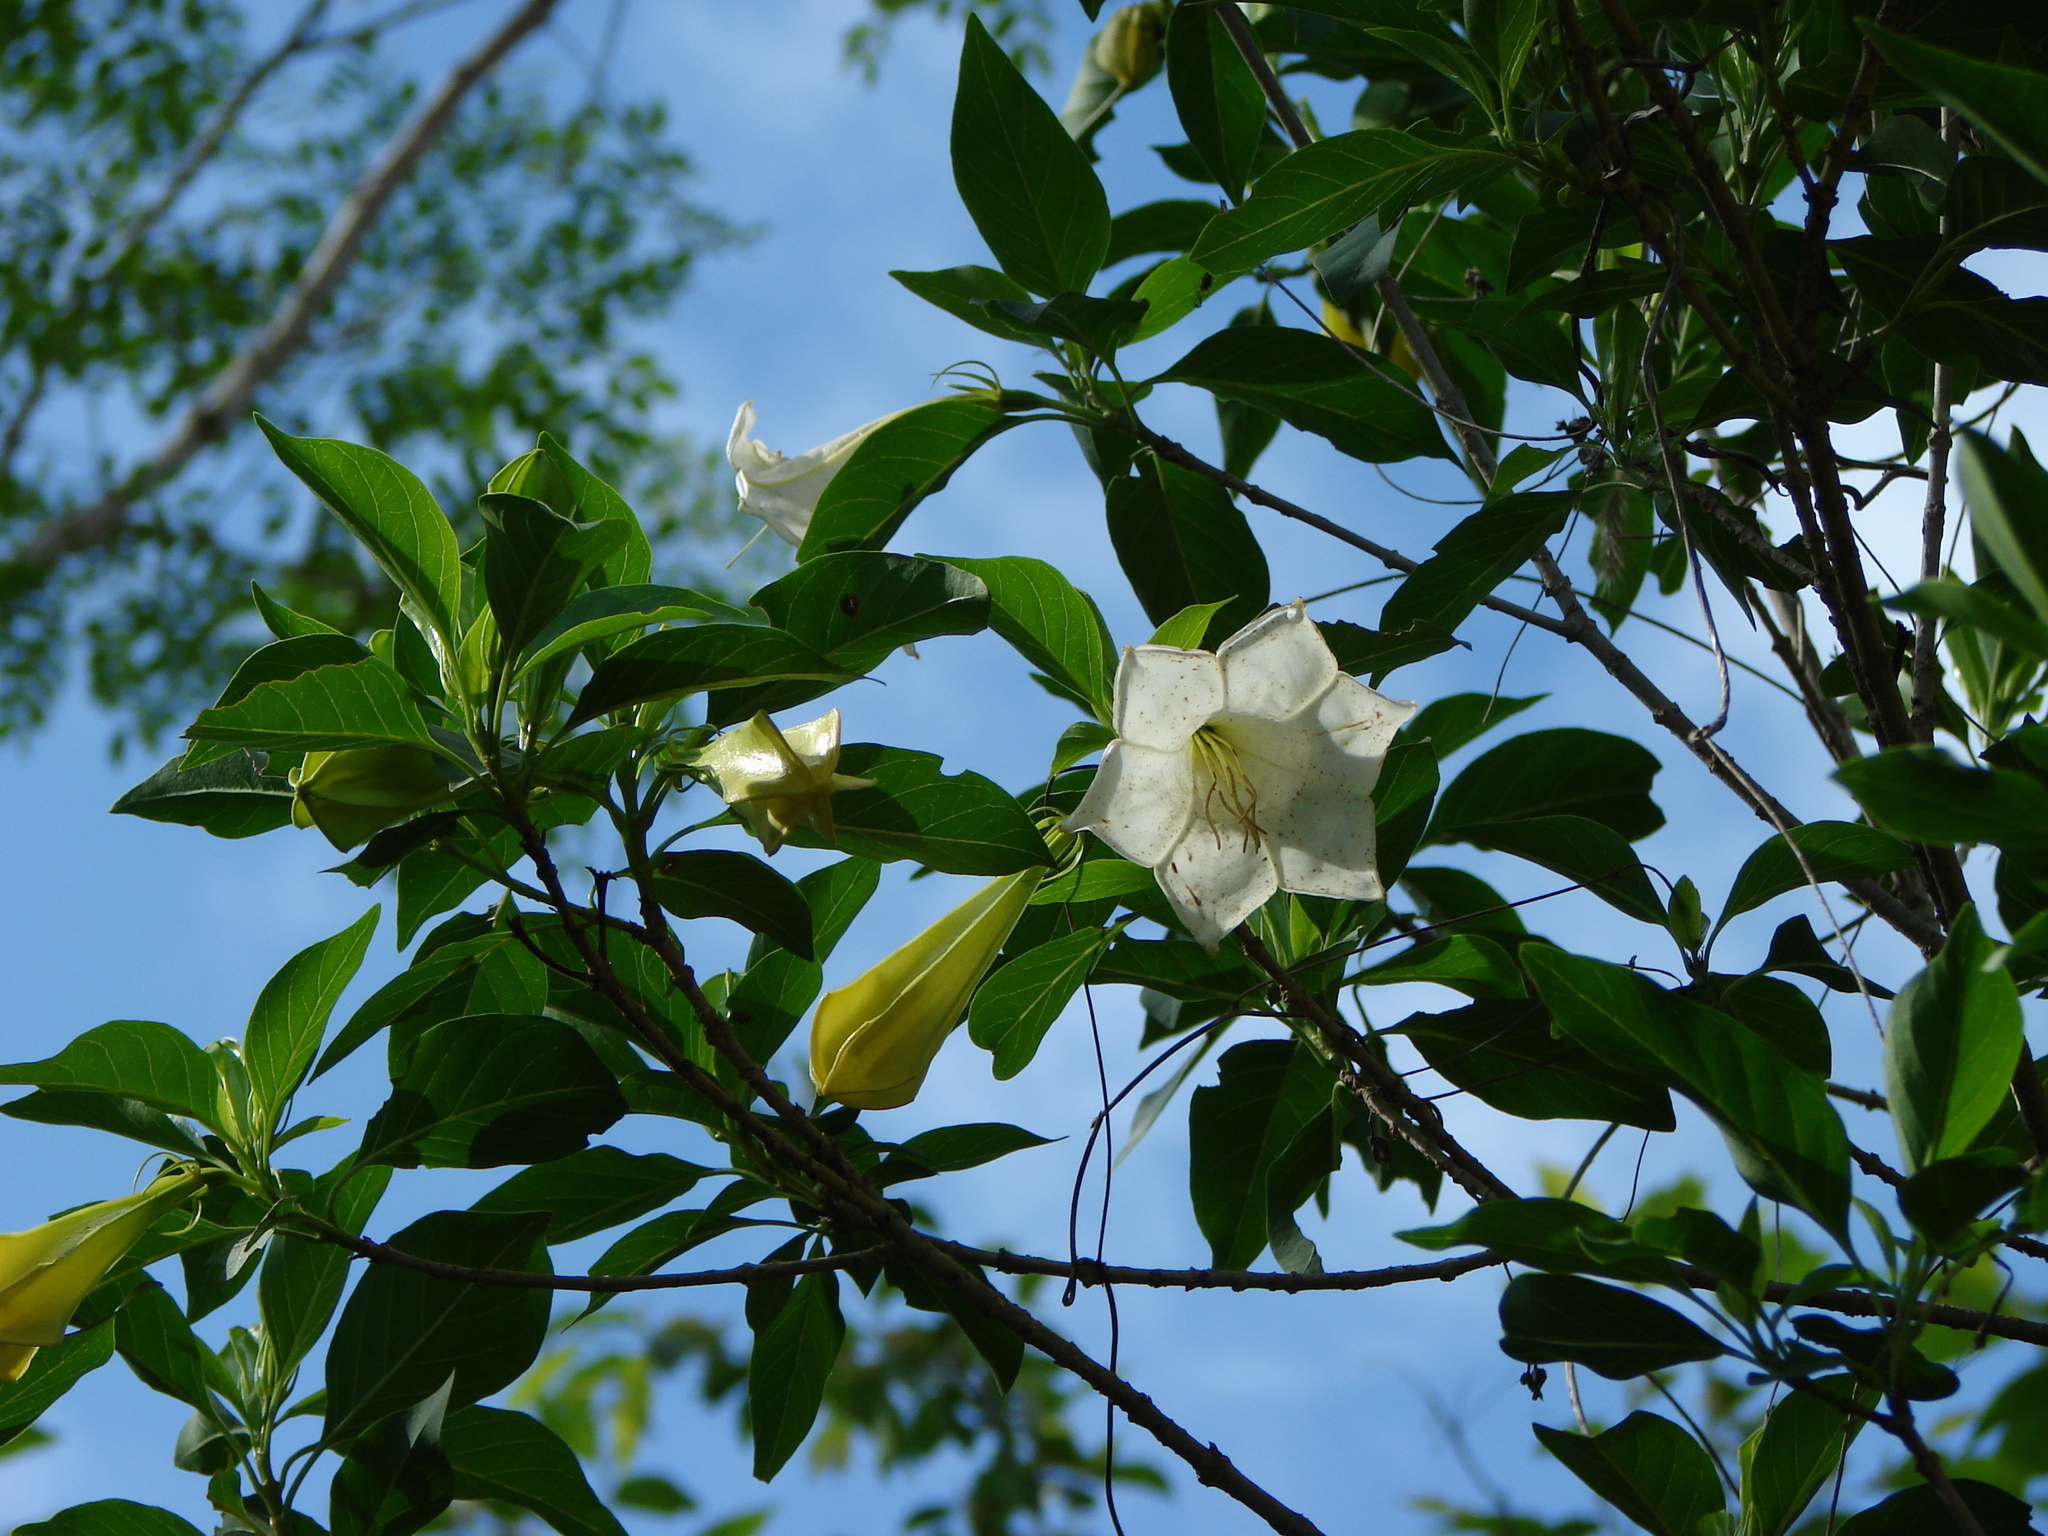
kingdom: Plantae
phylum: Tracheophyta
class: Magnoliopsida
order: Gentianales
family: Rubiaceae
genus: Hintonia
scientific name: Hintonia latiflora
